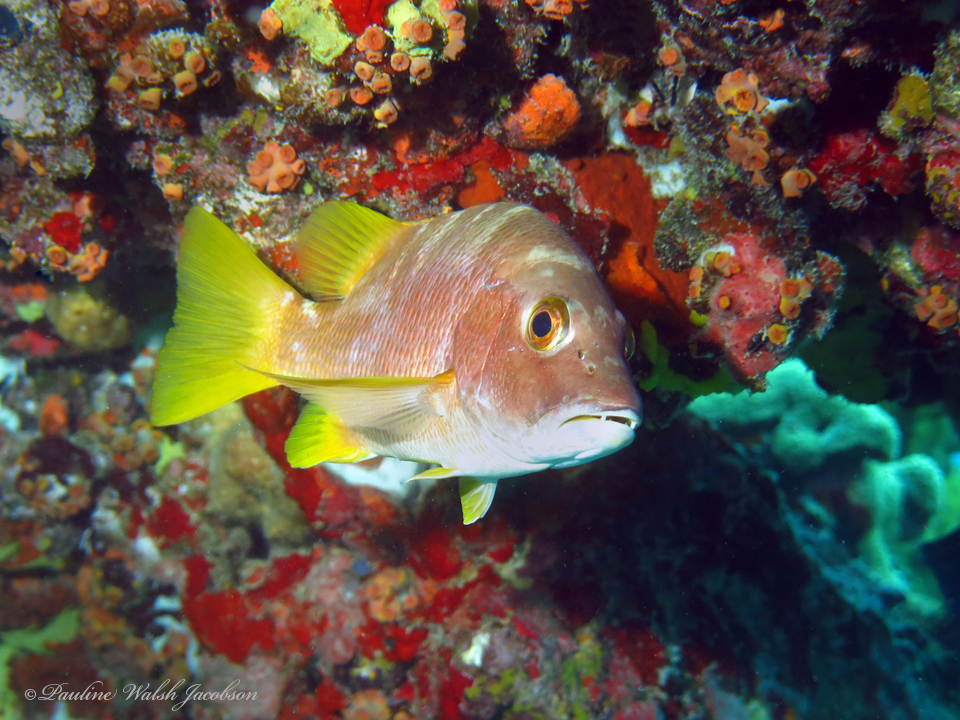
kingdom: Animalia
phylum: Chordata
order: Perciformes
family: Lutjanidae
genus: Lutjanus
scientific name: Lutjanus apodus
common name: Schoolmaster
